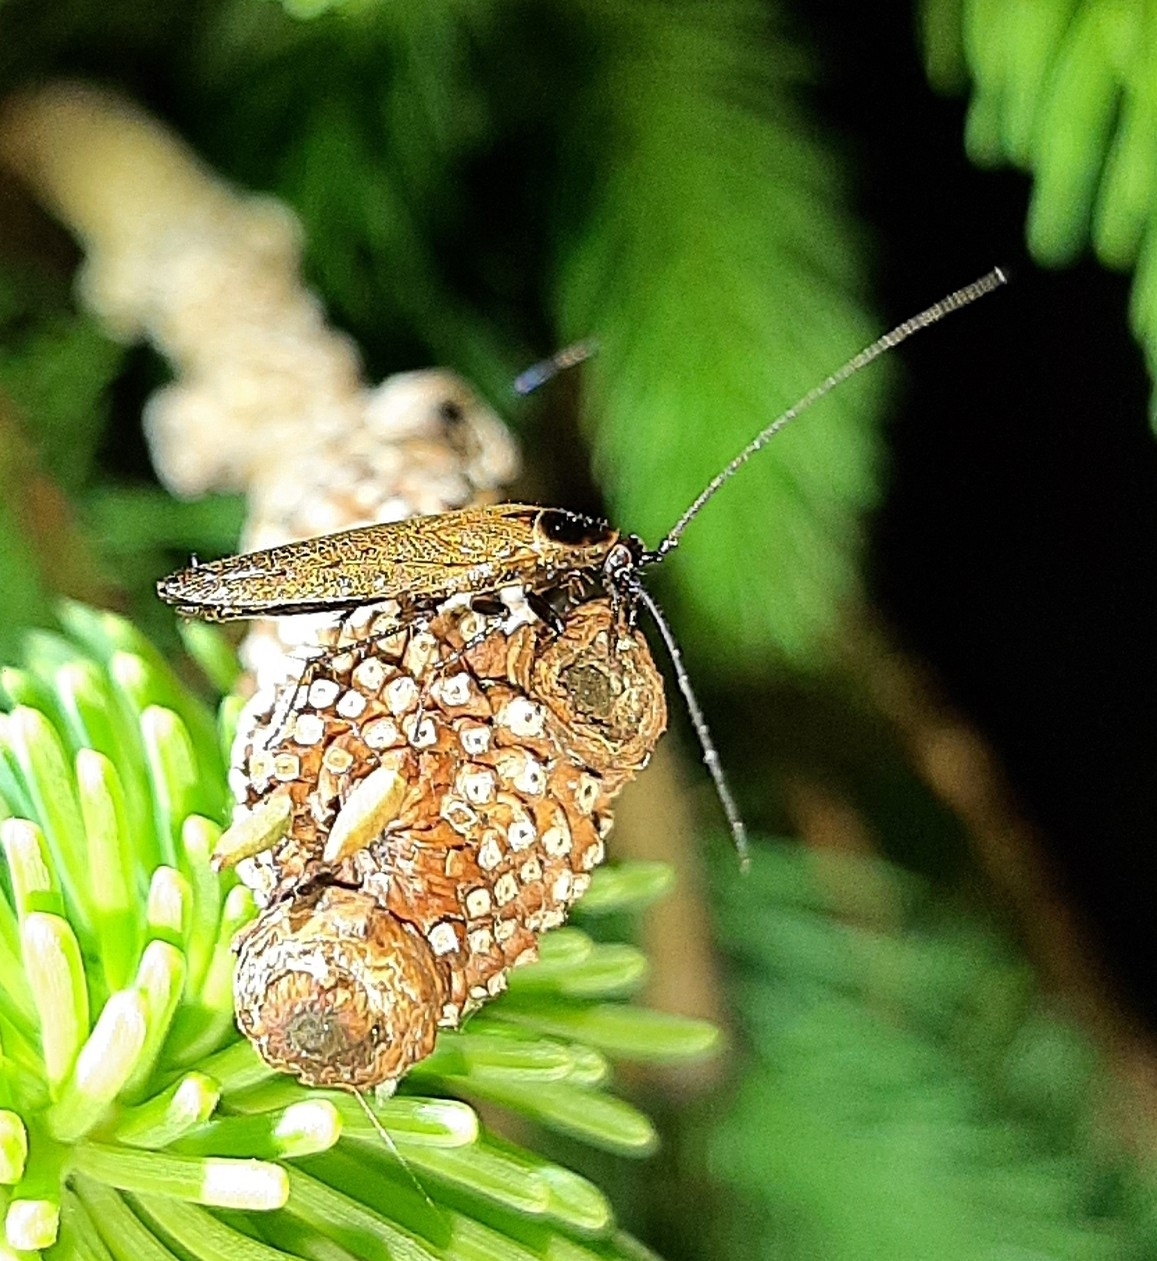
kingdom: Animalia
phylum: Arthropoda
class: Insecta
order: Blattodea
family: Ectobiidae
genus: Ectobius
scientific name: Ectobius lapponicus
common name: Dusky cockroach
